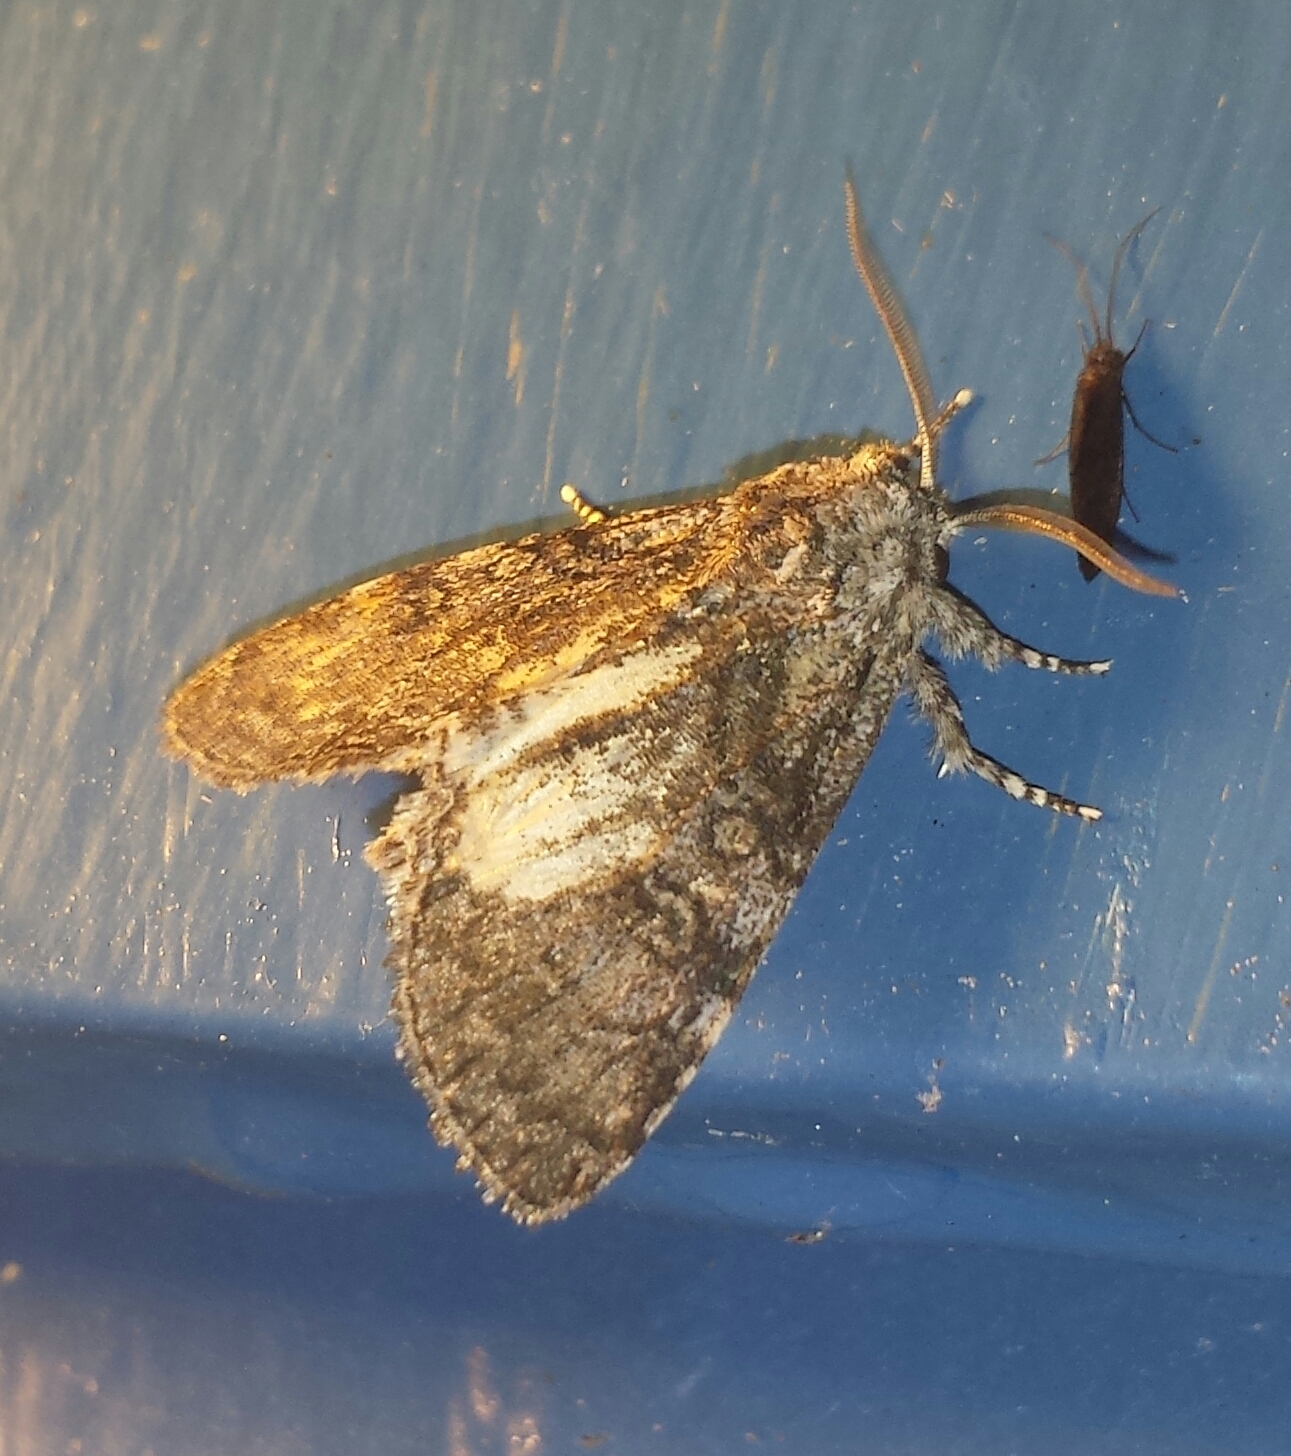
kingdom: Animalia
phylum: Arthropoda
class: Insecta
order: Lepidoptera
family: Noctuidae
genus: Raphia
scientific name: Raphia frater
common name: Brother
